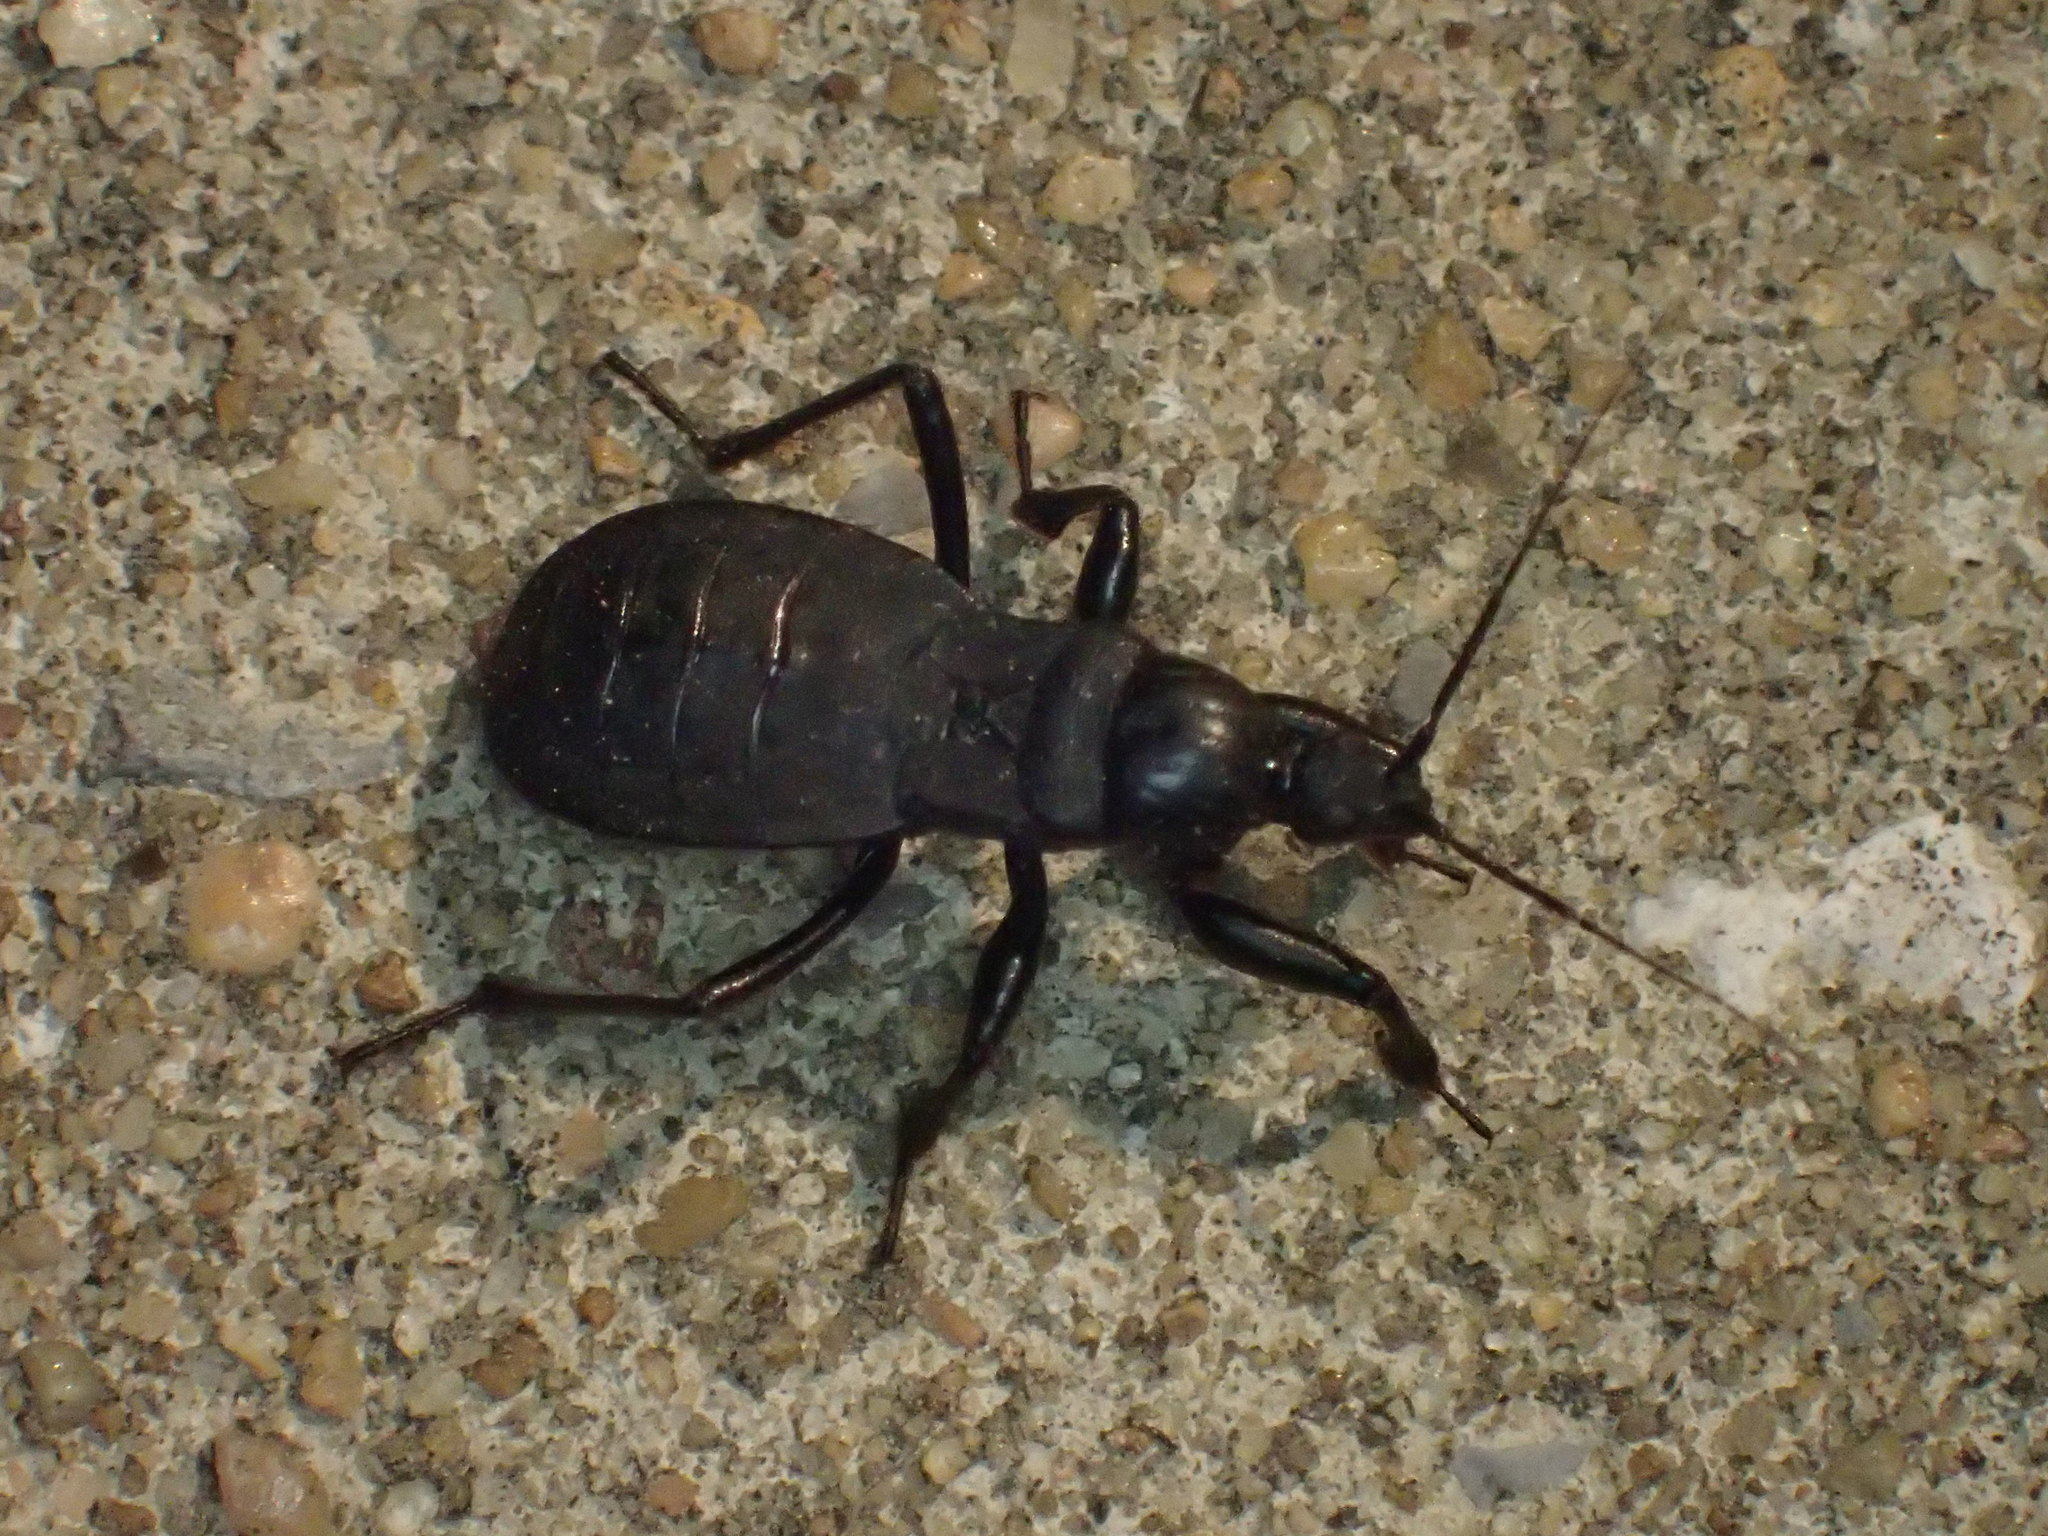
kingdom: Animalia
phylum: Arthropoda
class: Insecta
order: Hemiptera
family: Reduviidae
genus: Melanolestes
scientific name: Melanolestes picipes
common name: Assassin bug
